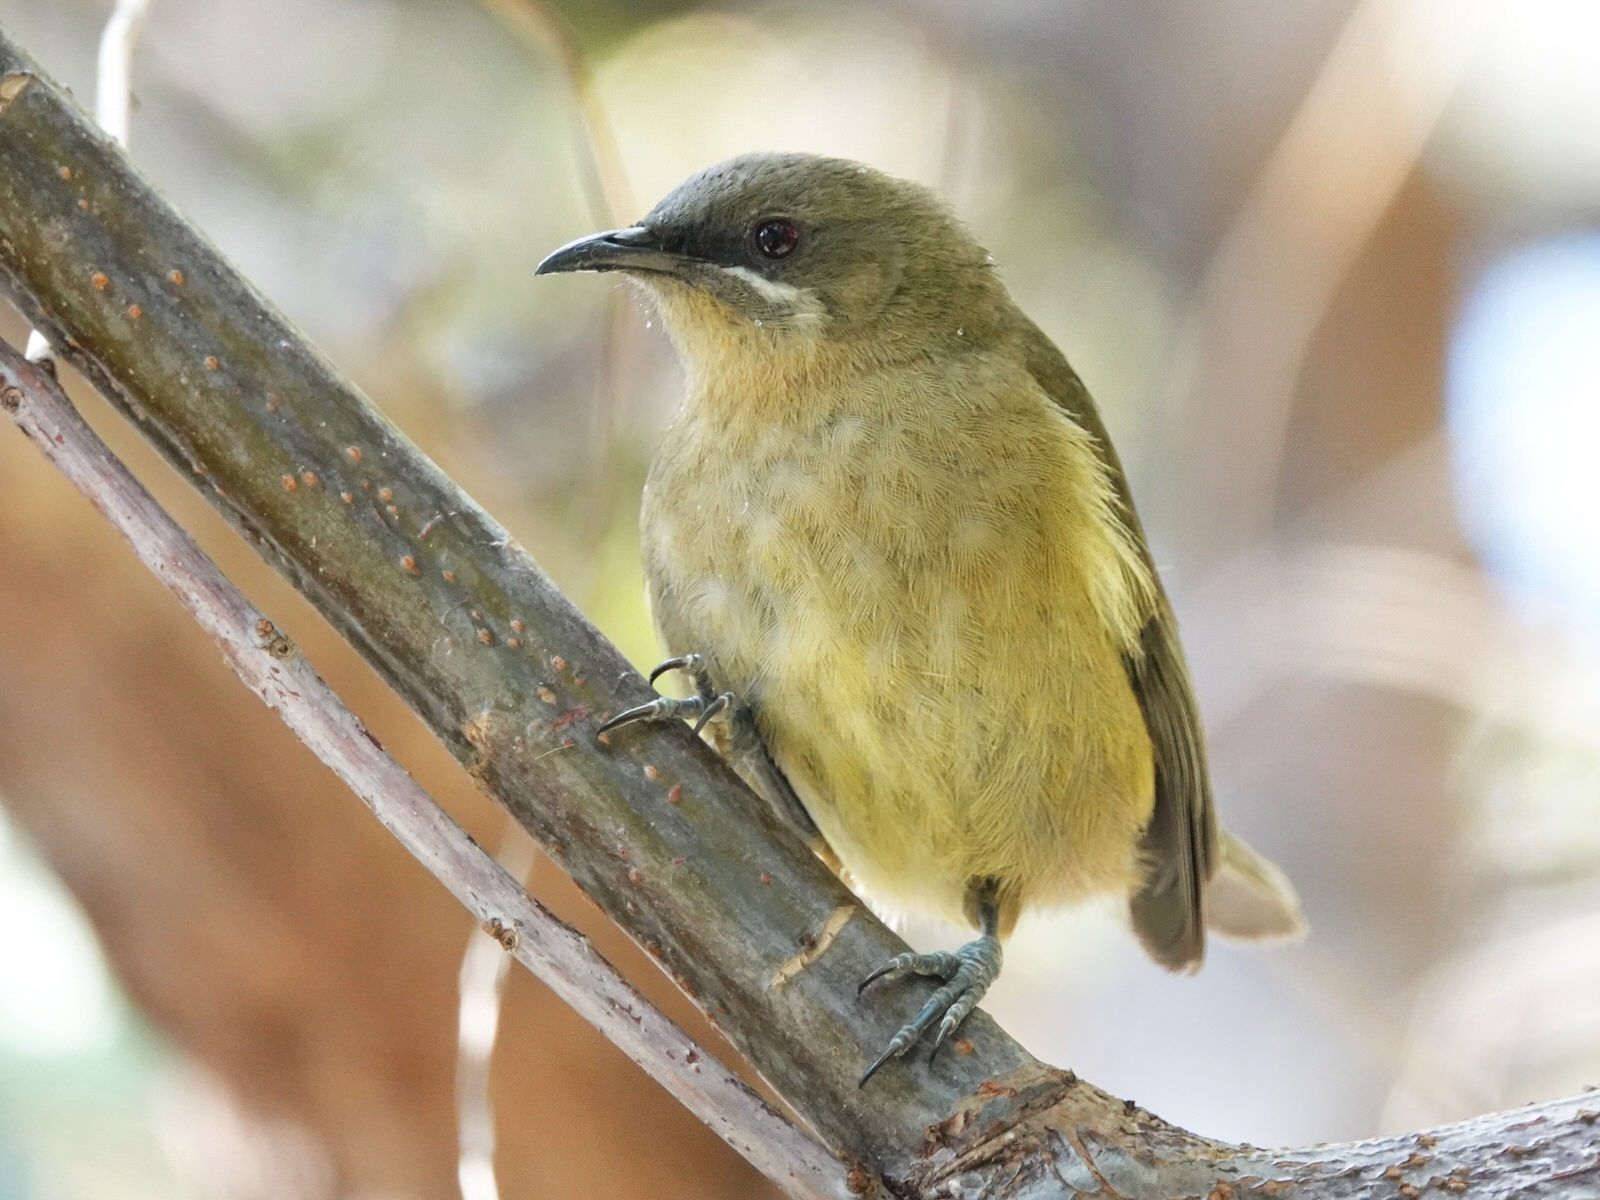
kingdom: Animalia
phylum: Chordata
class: Aves
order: Passeriformes
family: Meliphagidae
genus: Anthornis
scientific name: Anthornis melanura
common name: New zealand bellbird
